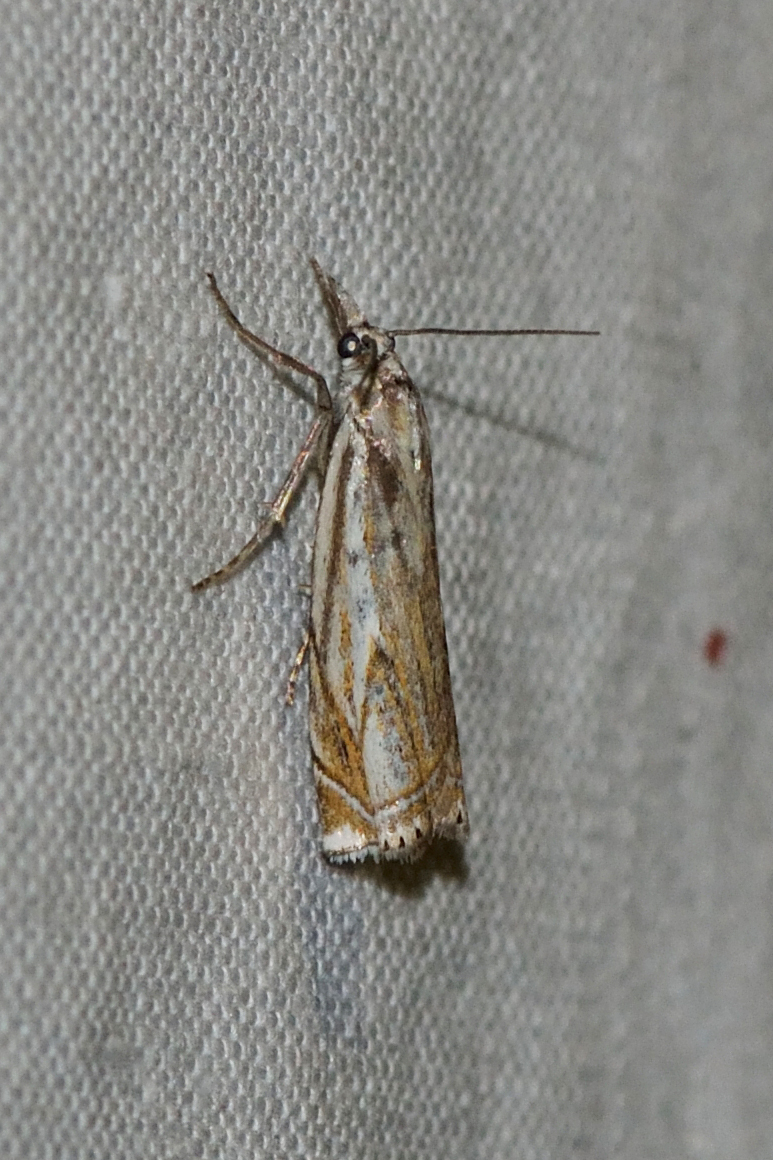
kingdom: Animalia
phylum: Arthropoda
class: Insecta
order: Lepidoptera
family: Crambidae
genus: Crambus
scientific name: Crambus nemorella
